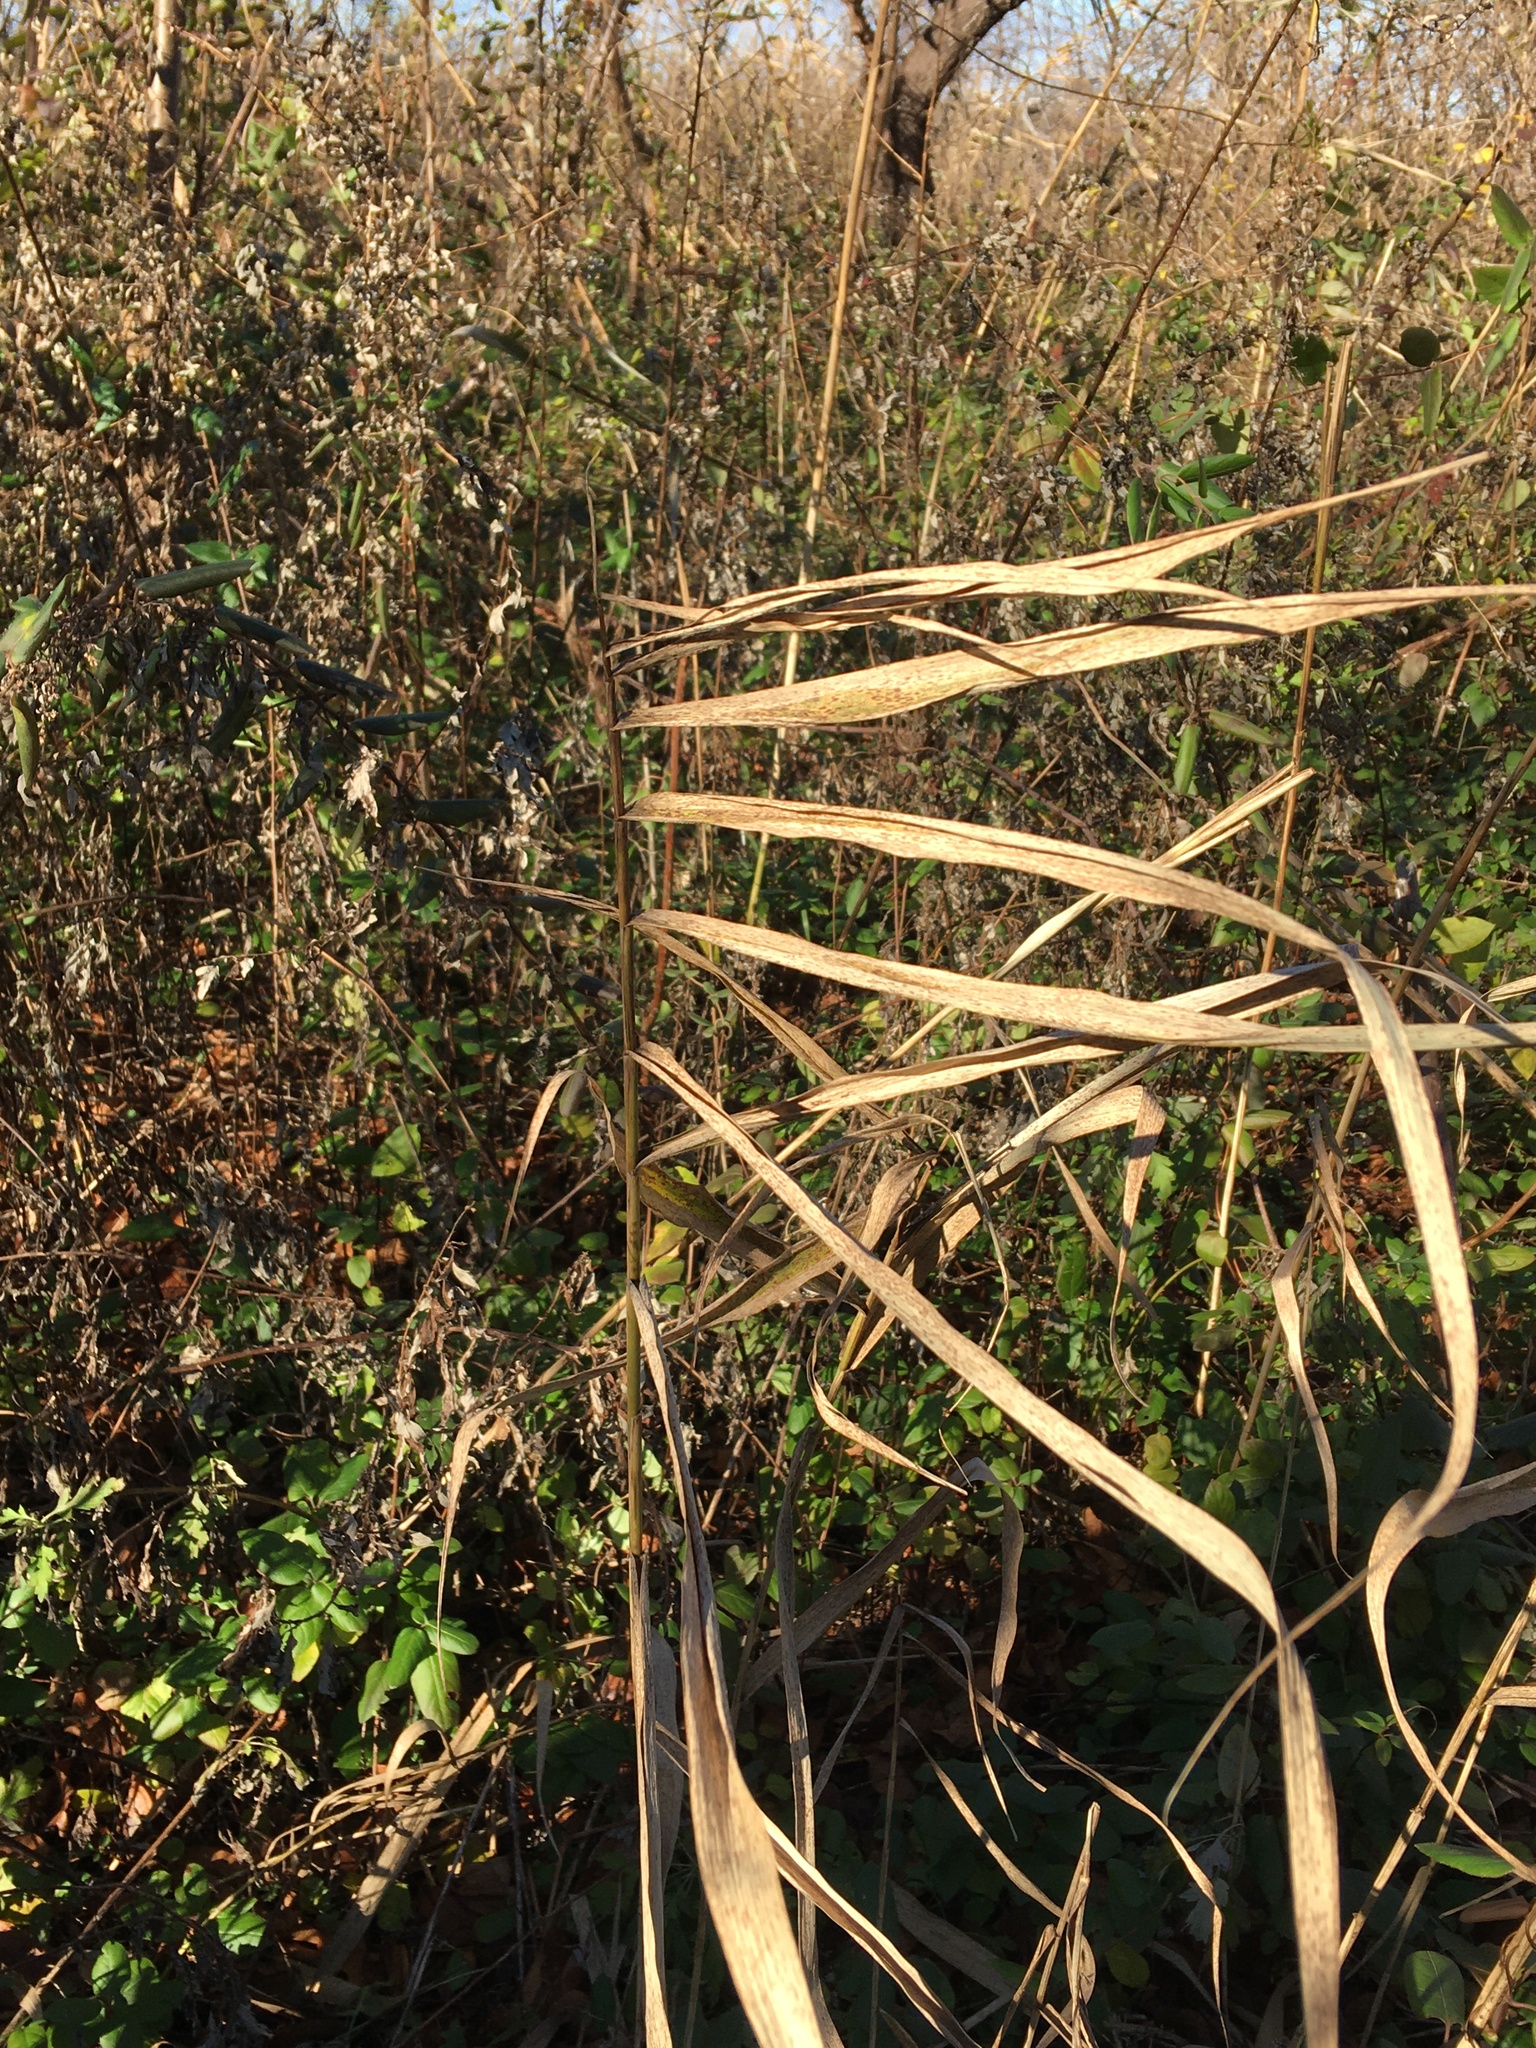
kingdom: Plantae
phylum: Tracheophyta
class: Liliopsida
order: Poales
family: Poaceae
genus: Phragmites
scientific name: Phragmites australis
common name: Common reed
